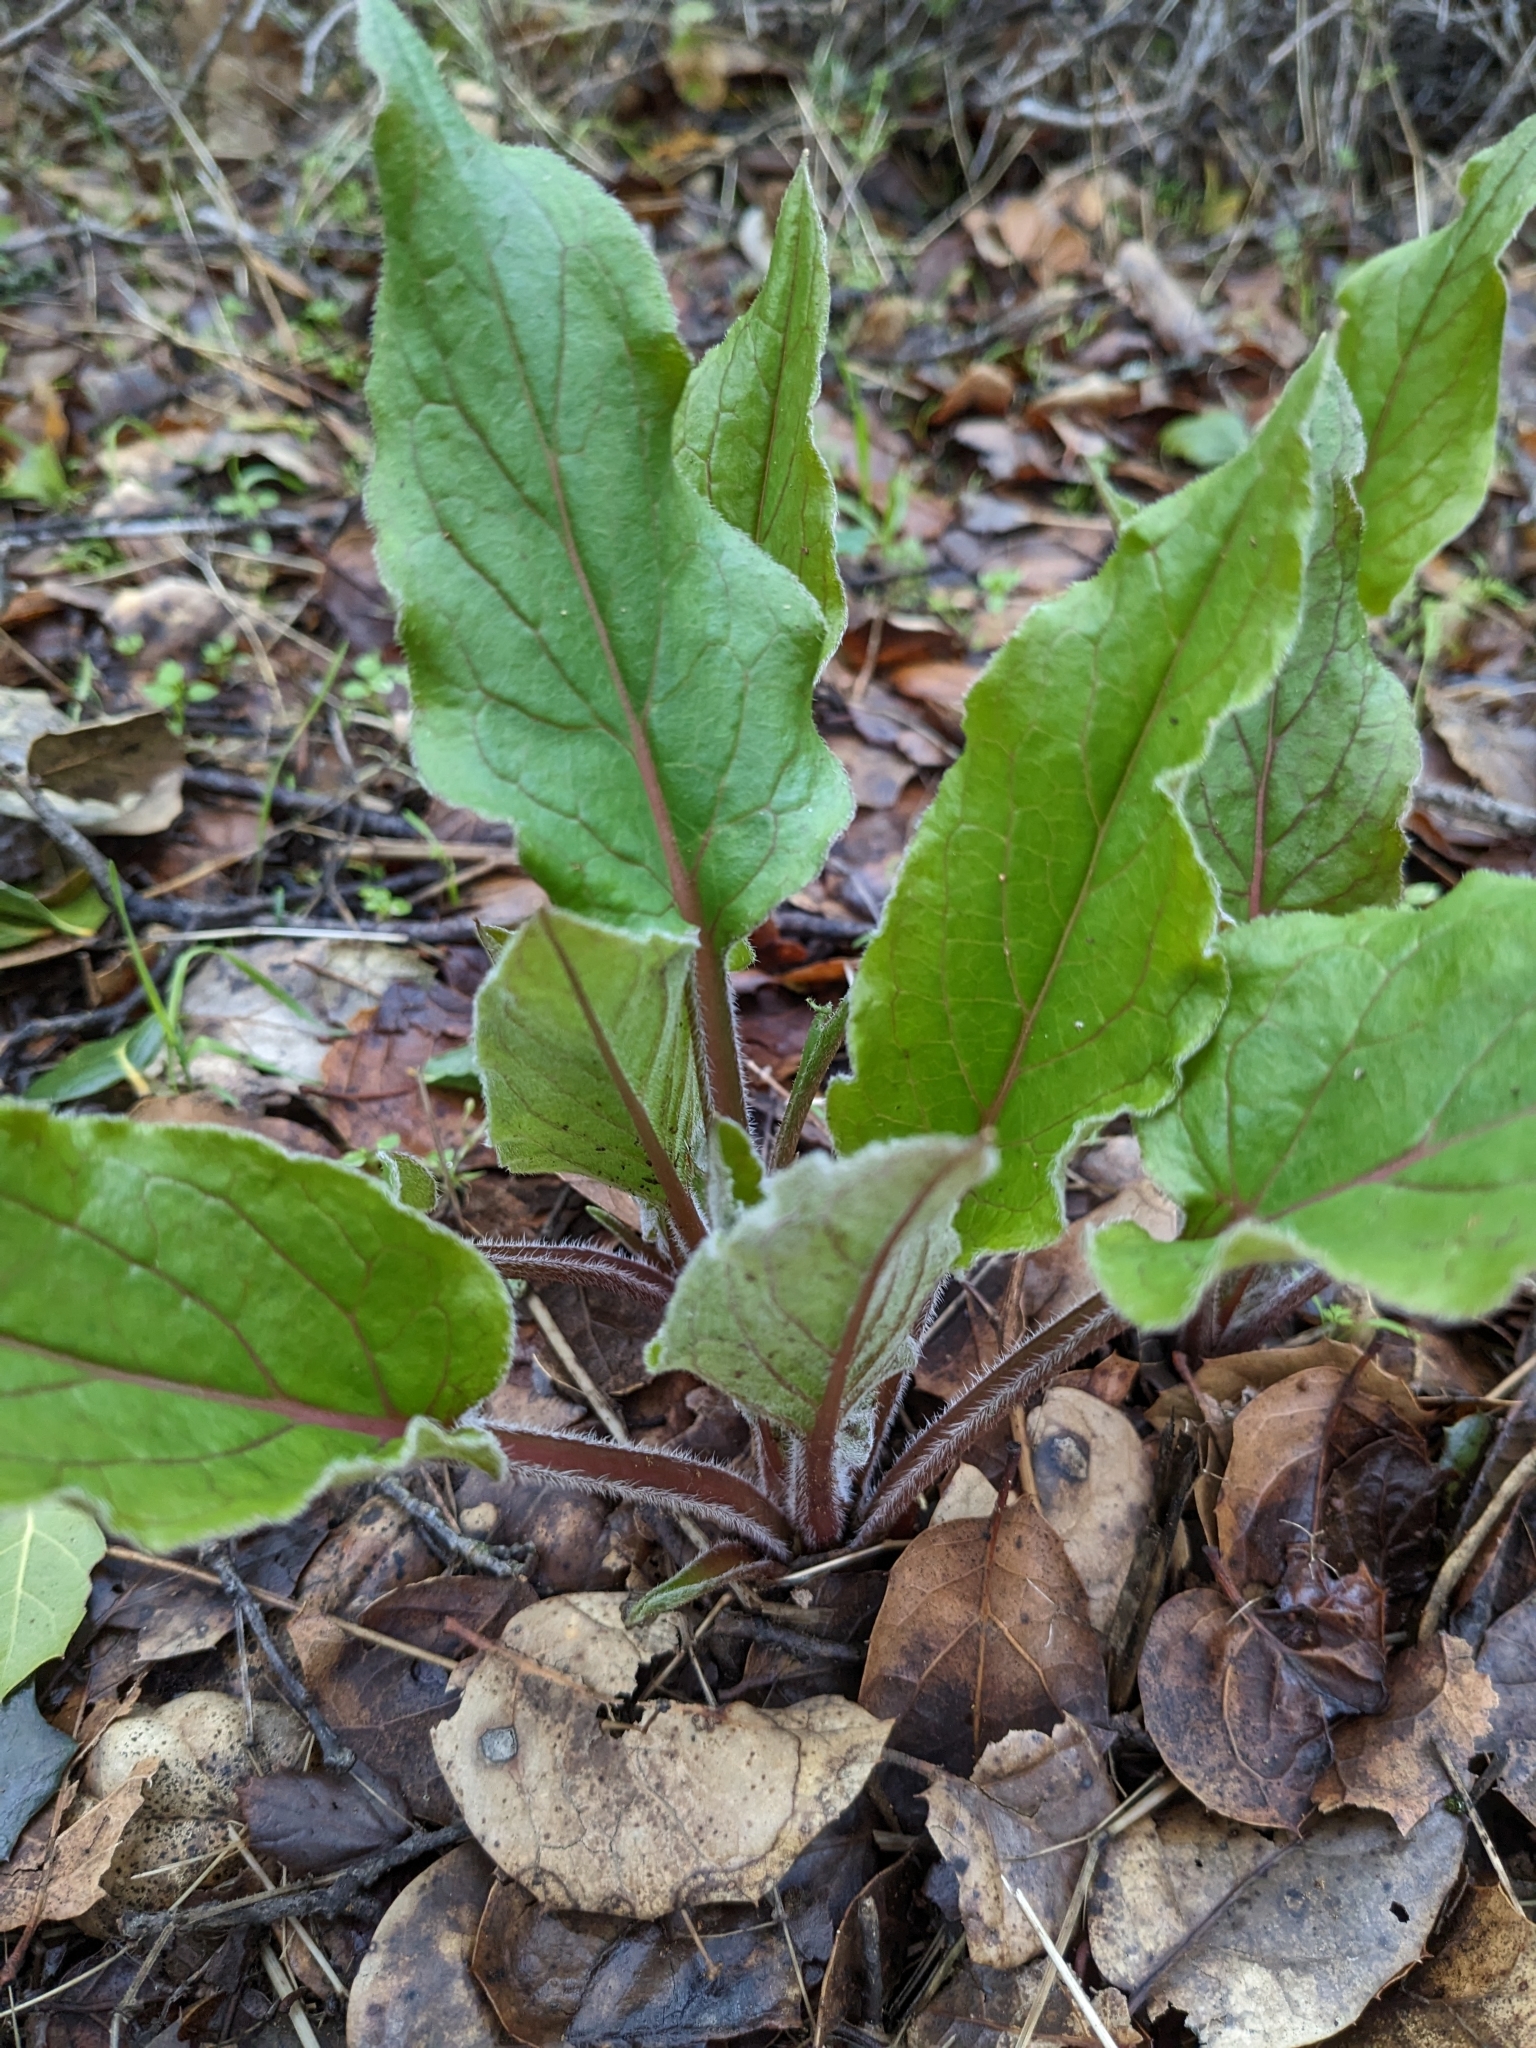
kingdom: Plantae
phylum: Tracheophyta
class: Magnoliopsida
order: Boraginales
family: Boraginaceae
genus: Adelinia
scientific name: Adelinia grande
